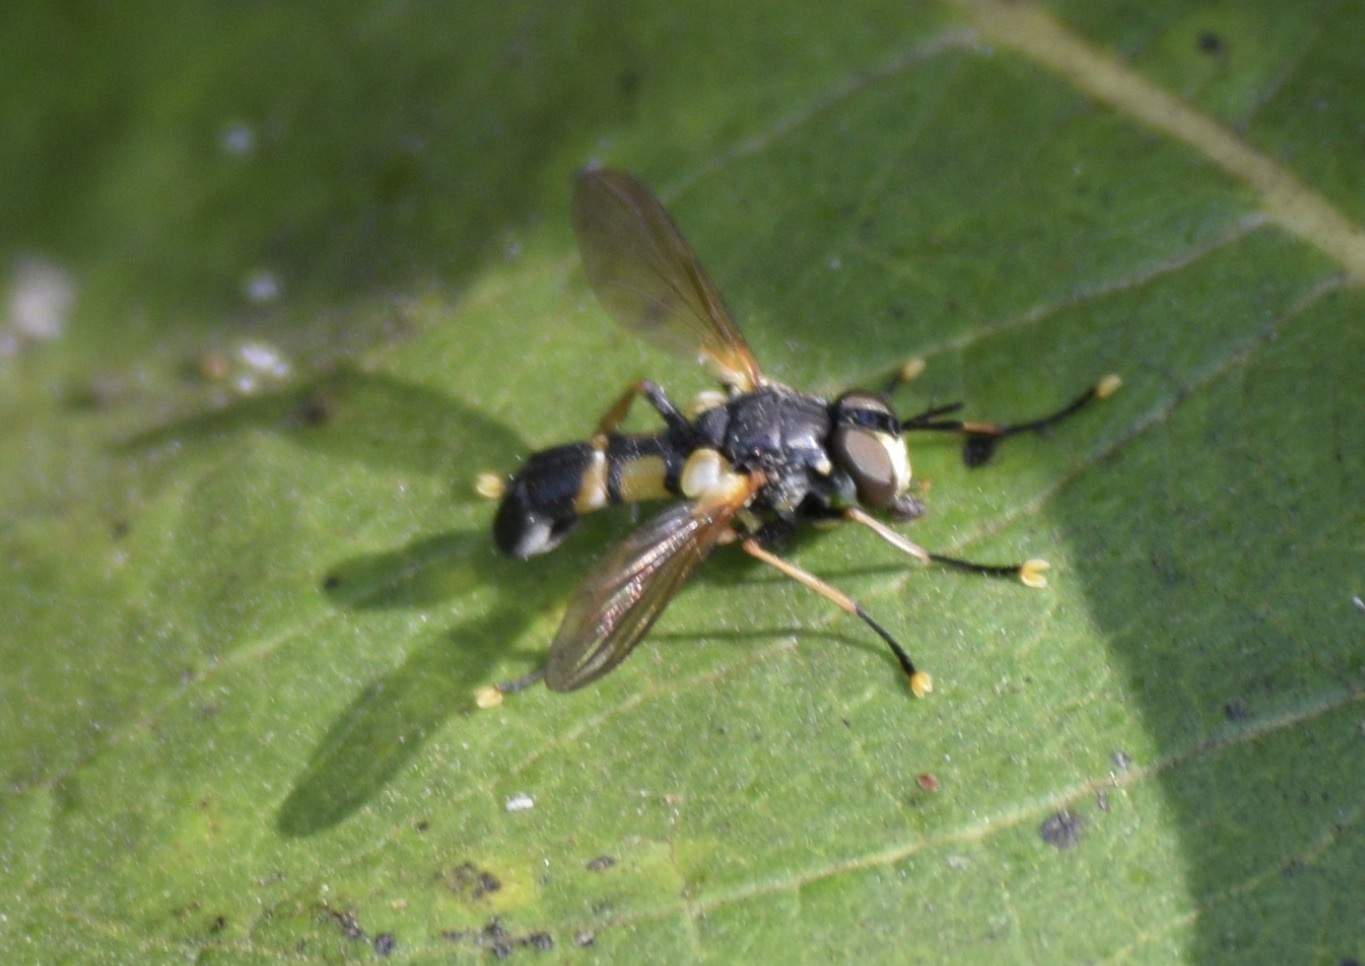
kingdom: Animalia
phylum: Arthropoda
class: Insecta
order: Diptera
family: Tachinidae
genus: Hemyda
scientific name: Hemyda aurata
